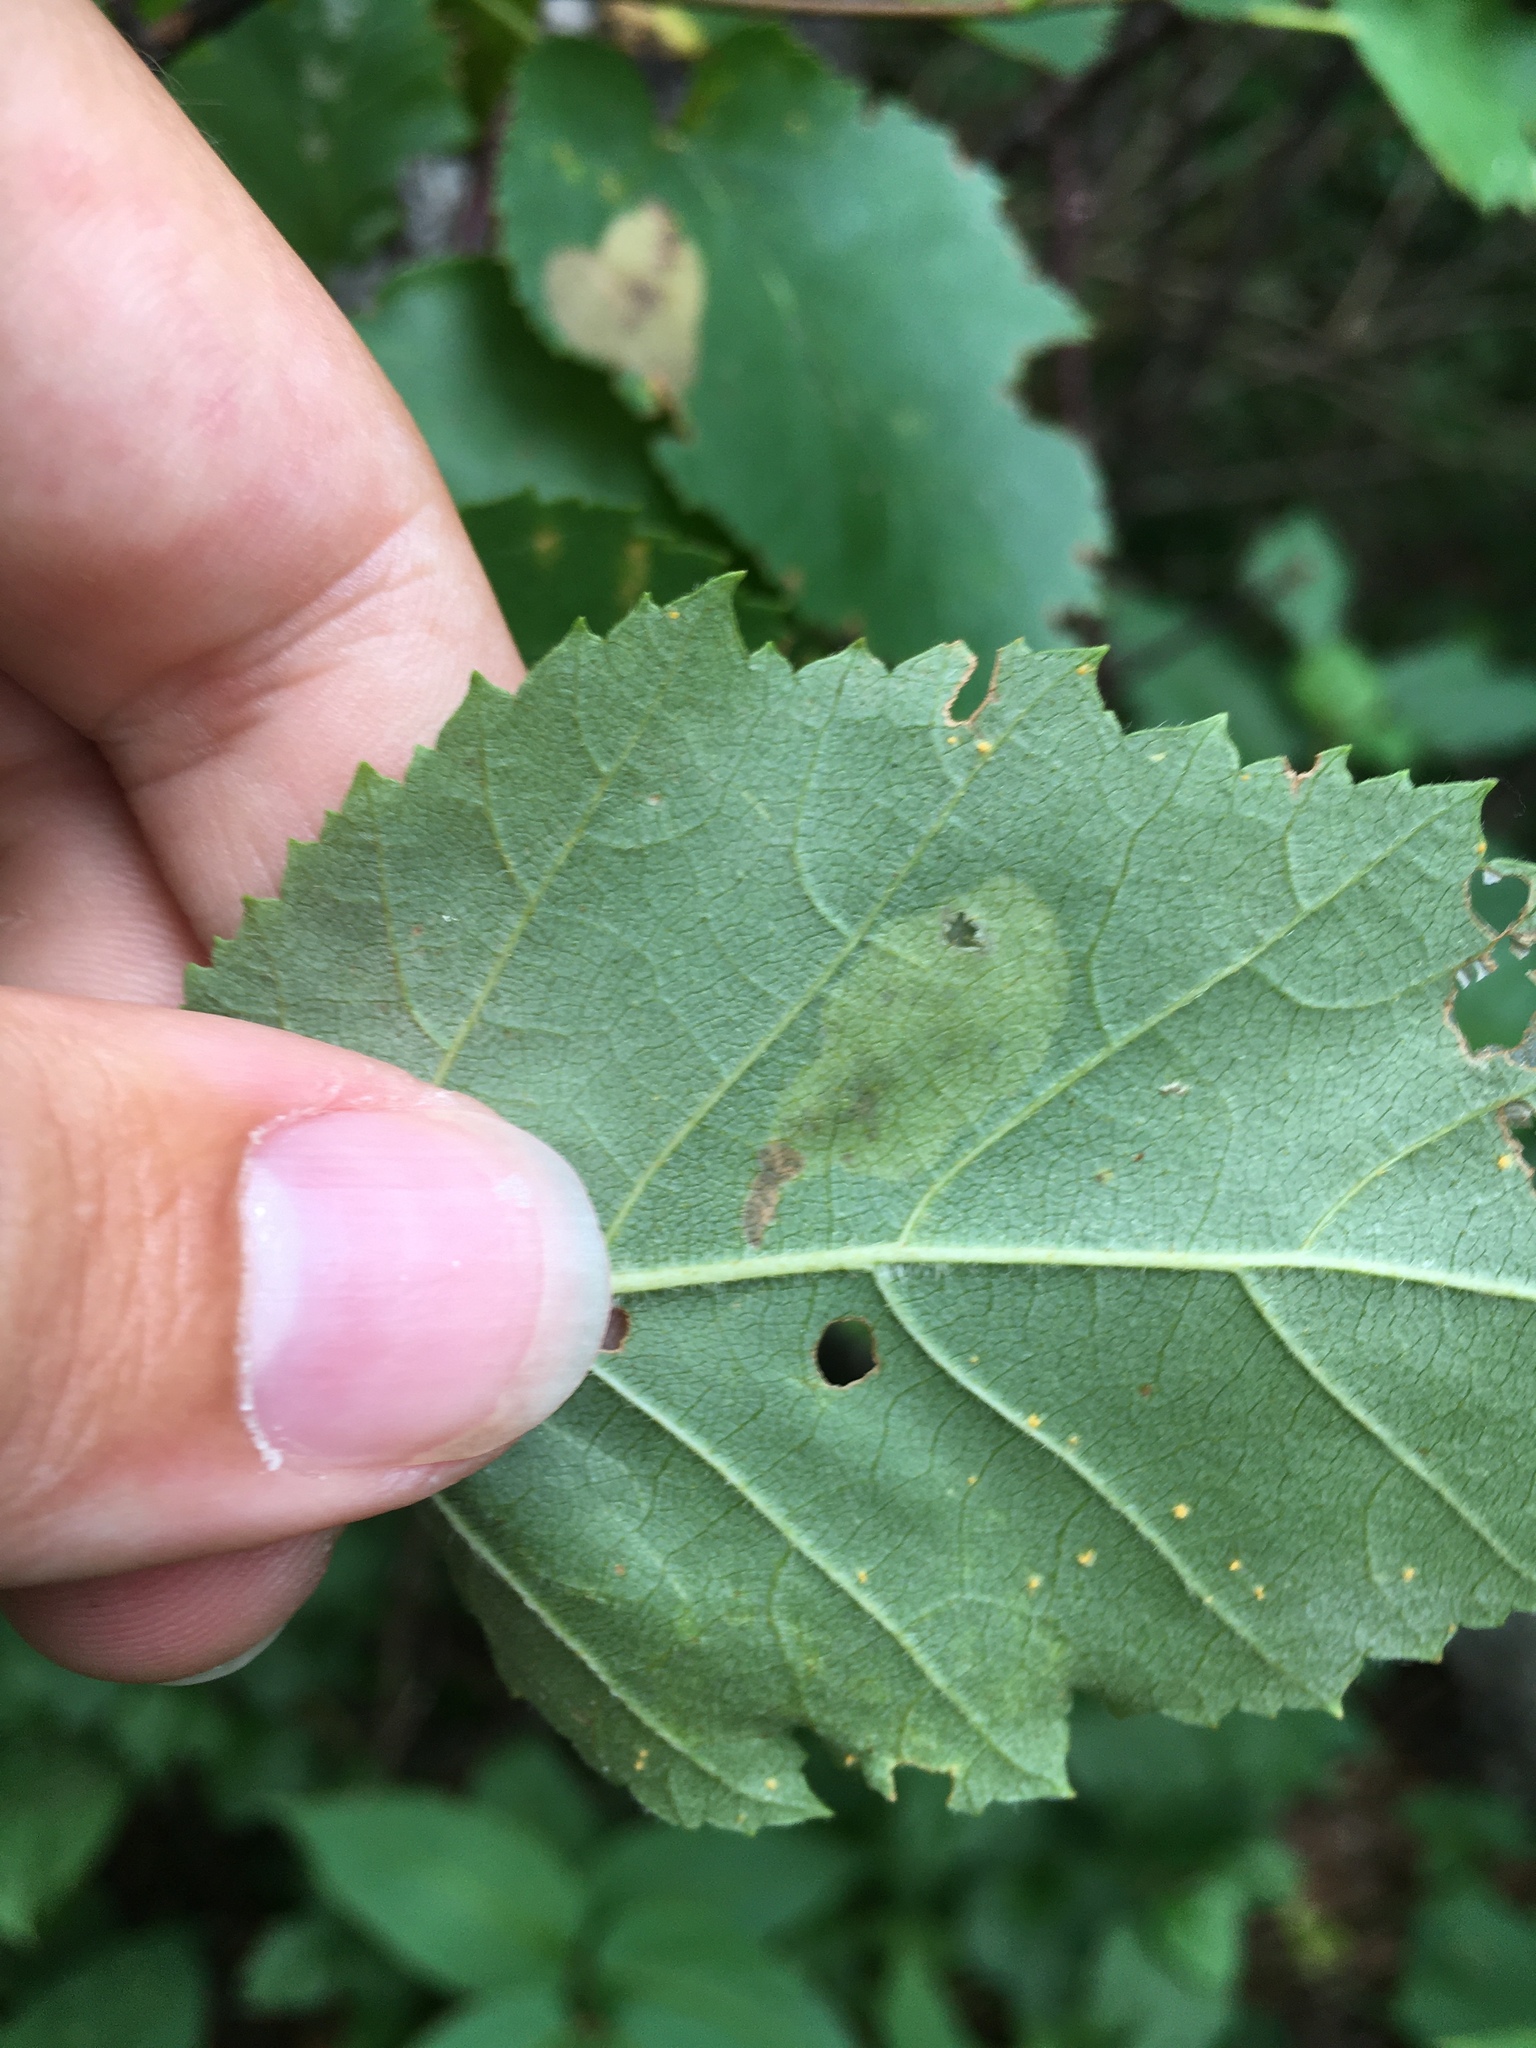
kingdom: Animalia
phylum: Arthropoda
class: Insecta
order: Hymenoptera
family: Tenthredinidae
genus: Profenusa
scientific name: Profenusa thomsoni
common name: Amber-marked birch leafminer
